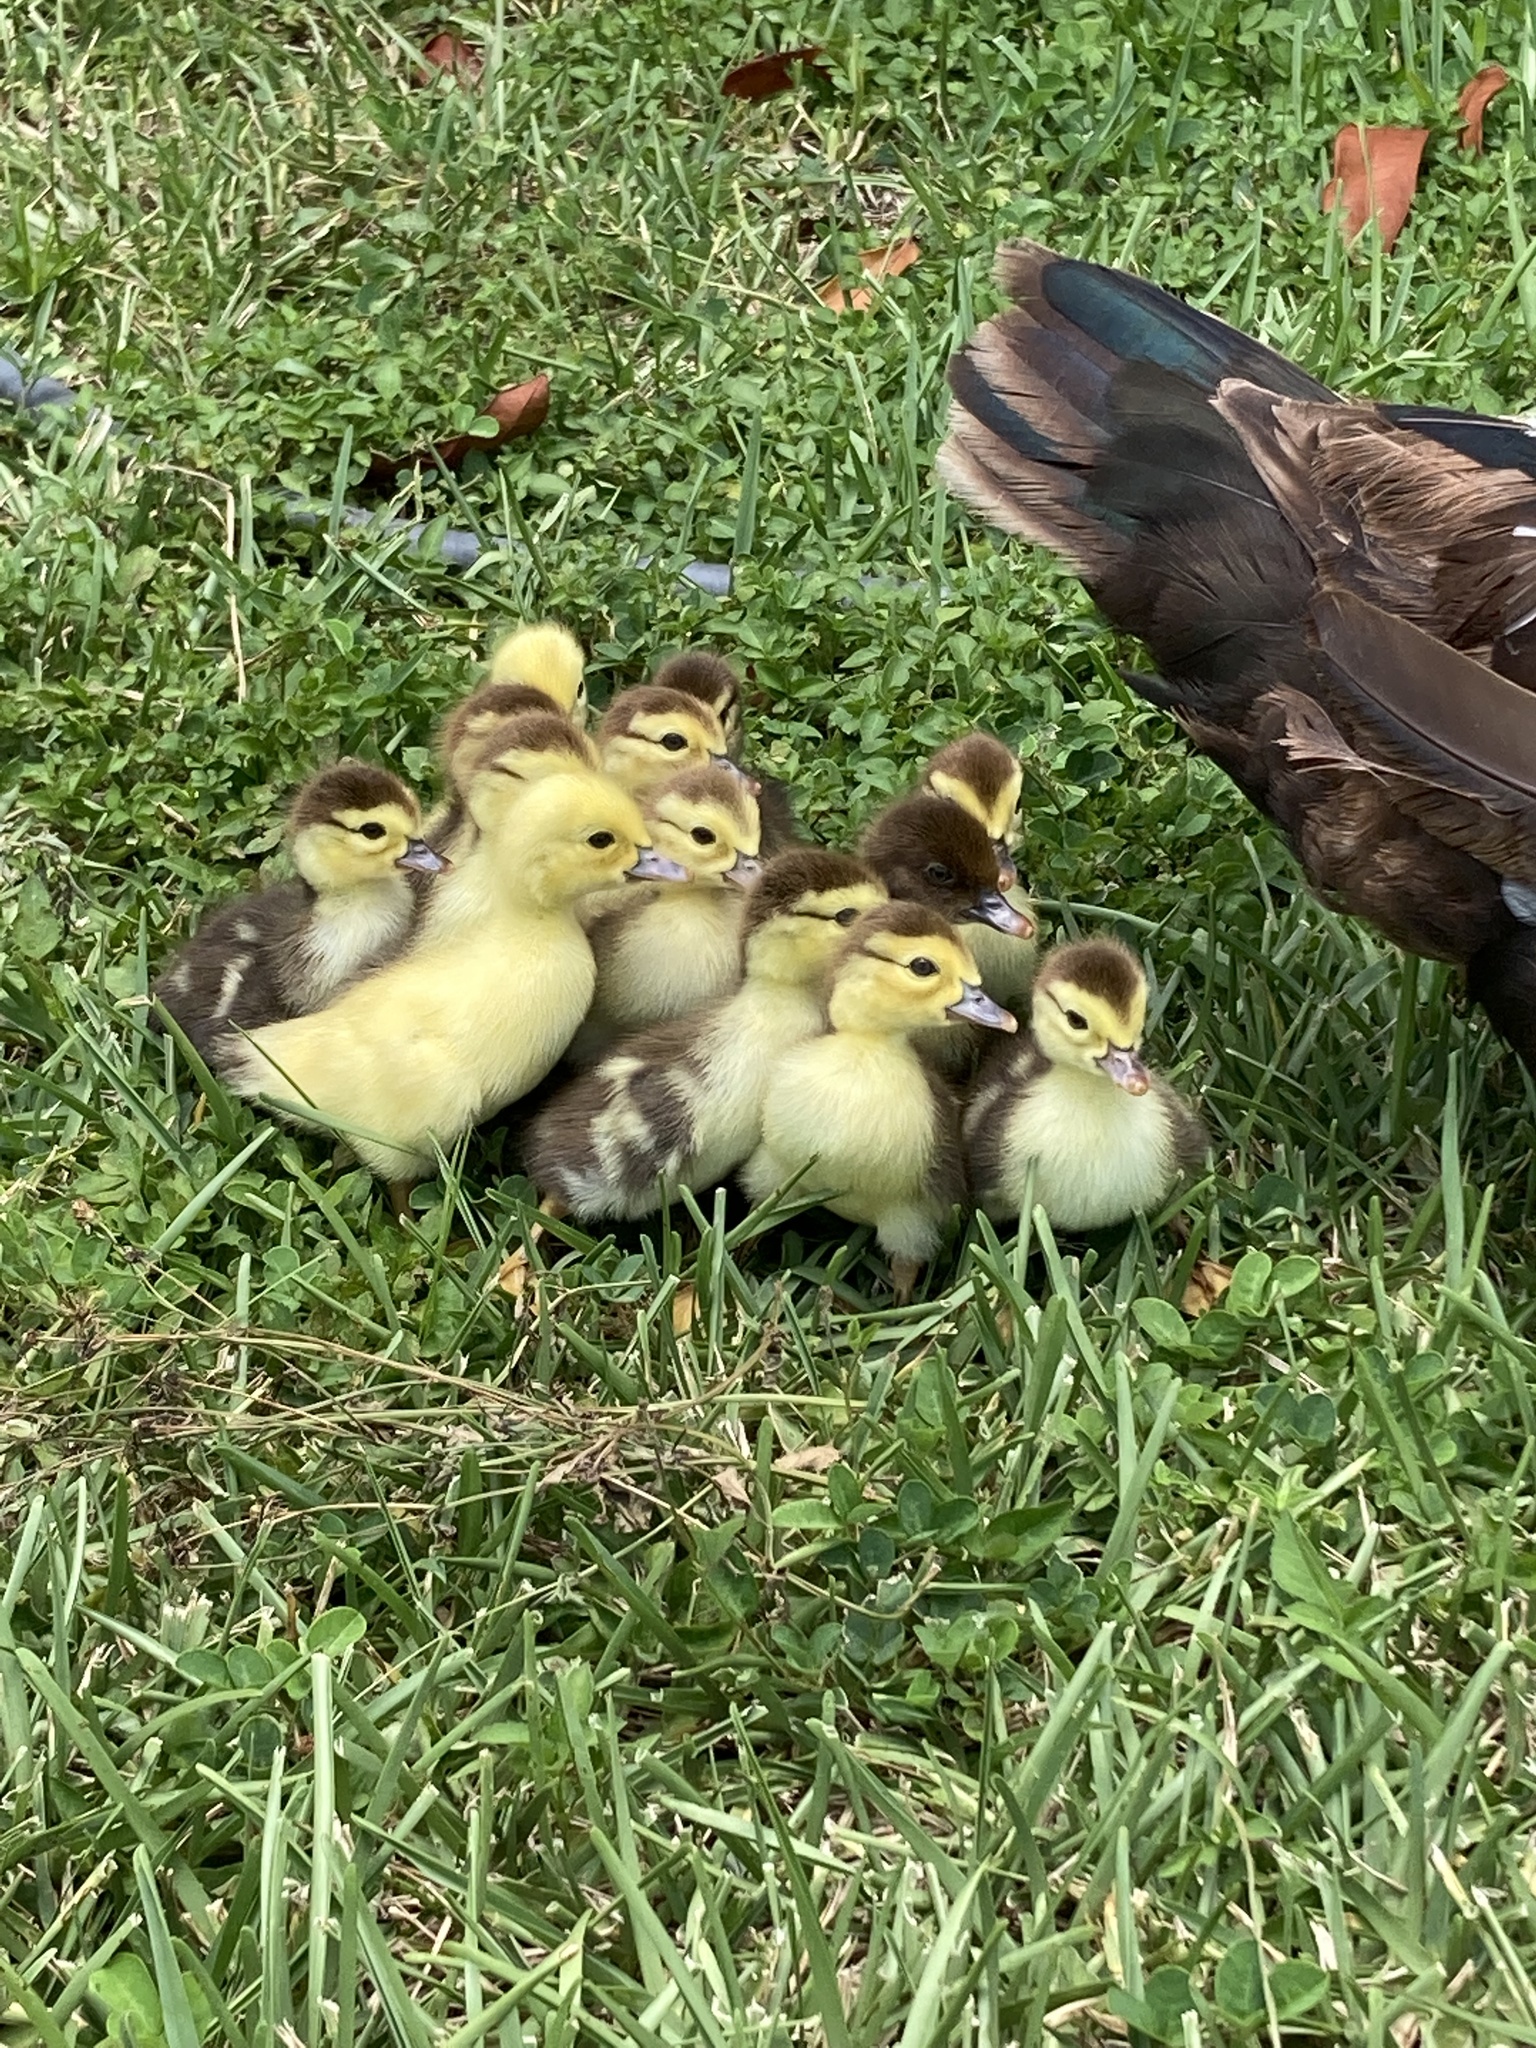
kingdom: Animalia
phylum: Chordata
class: Aves
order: Anseriformes
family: Anatidae
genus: Cairina
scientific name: Cairina moschata
